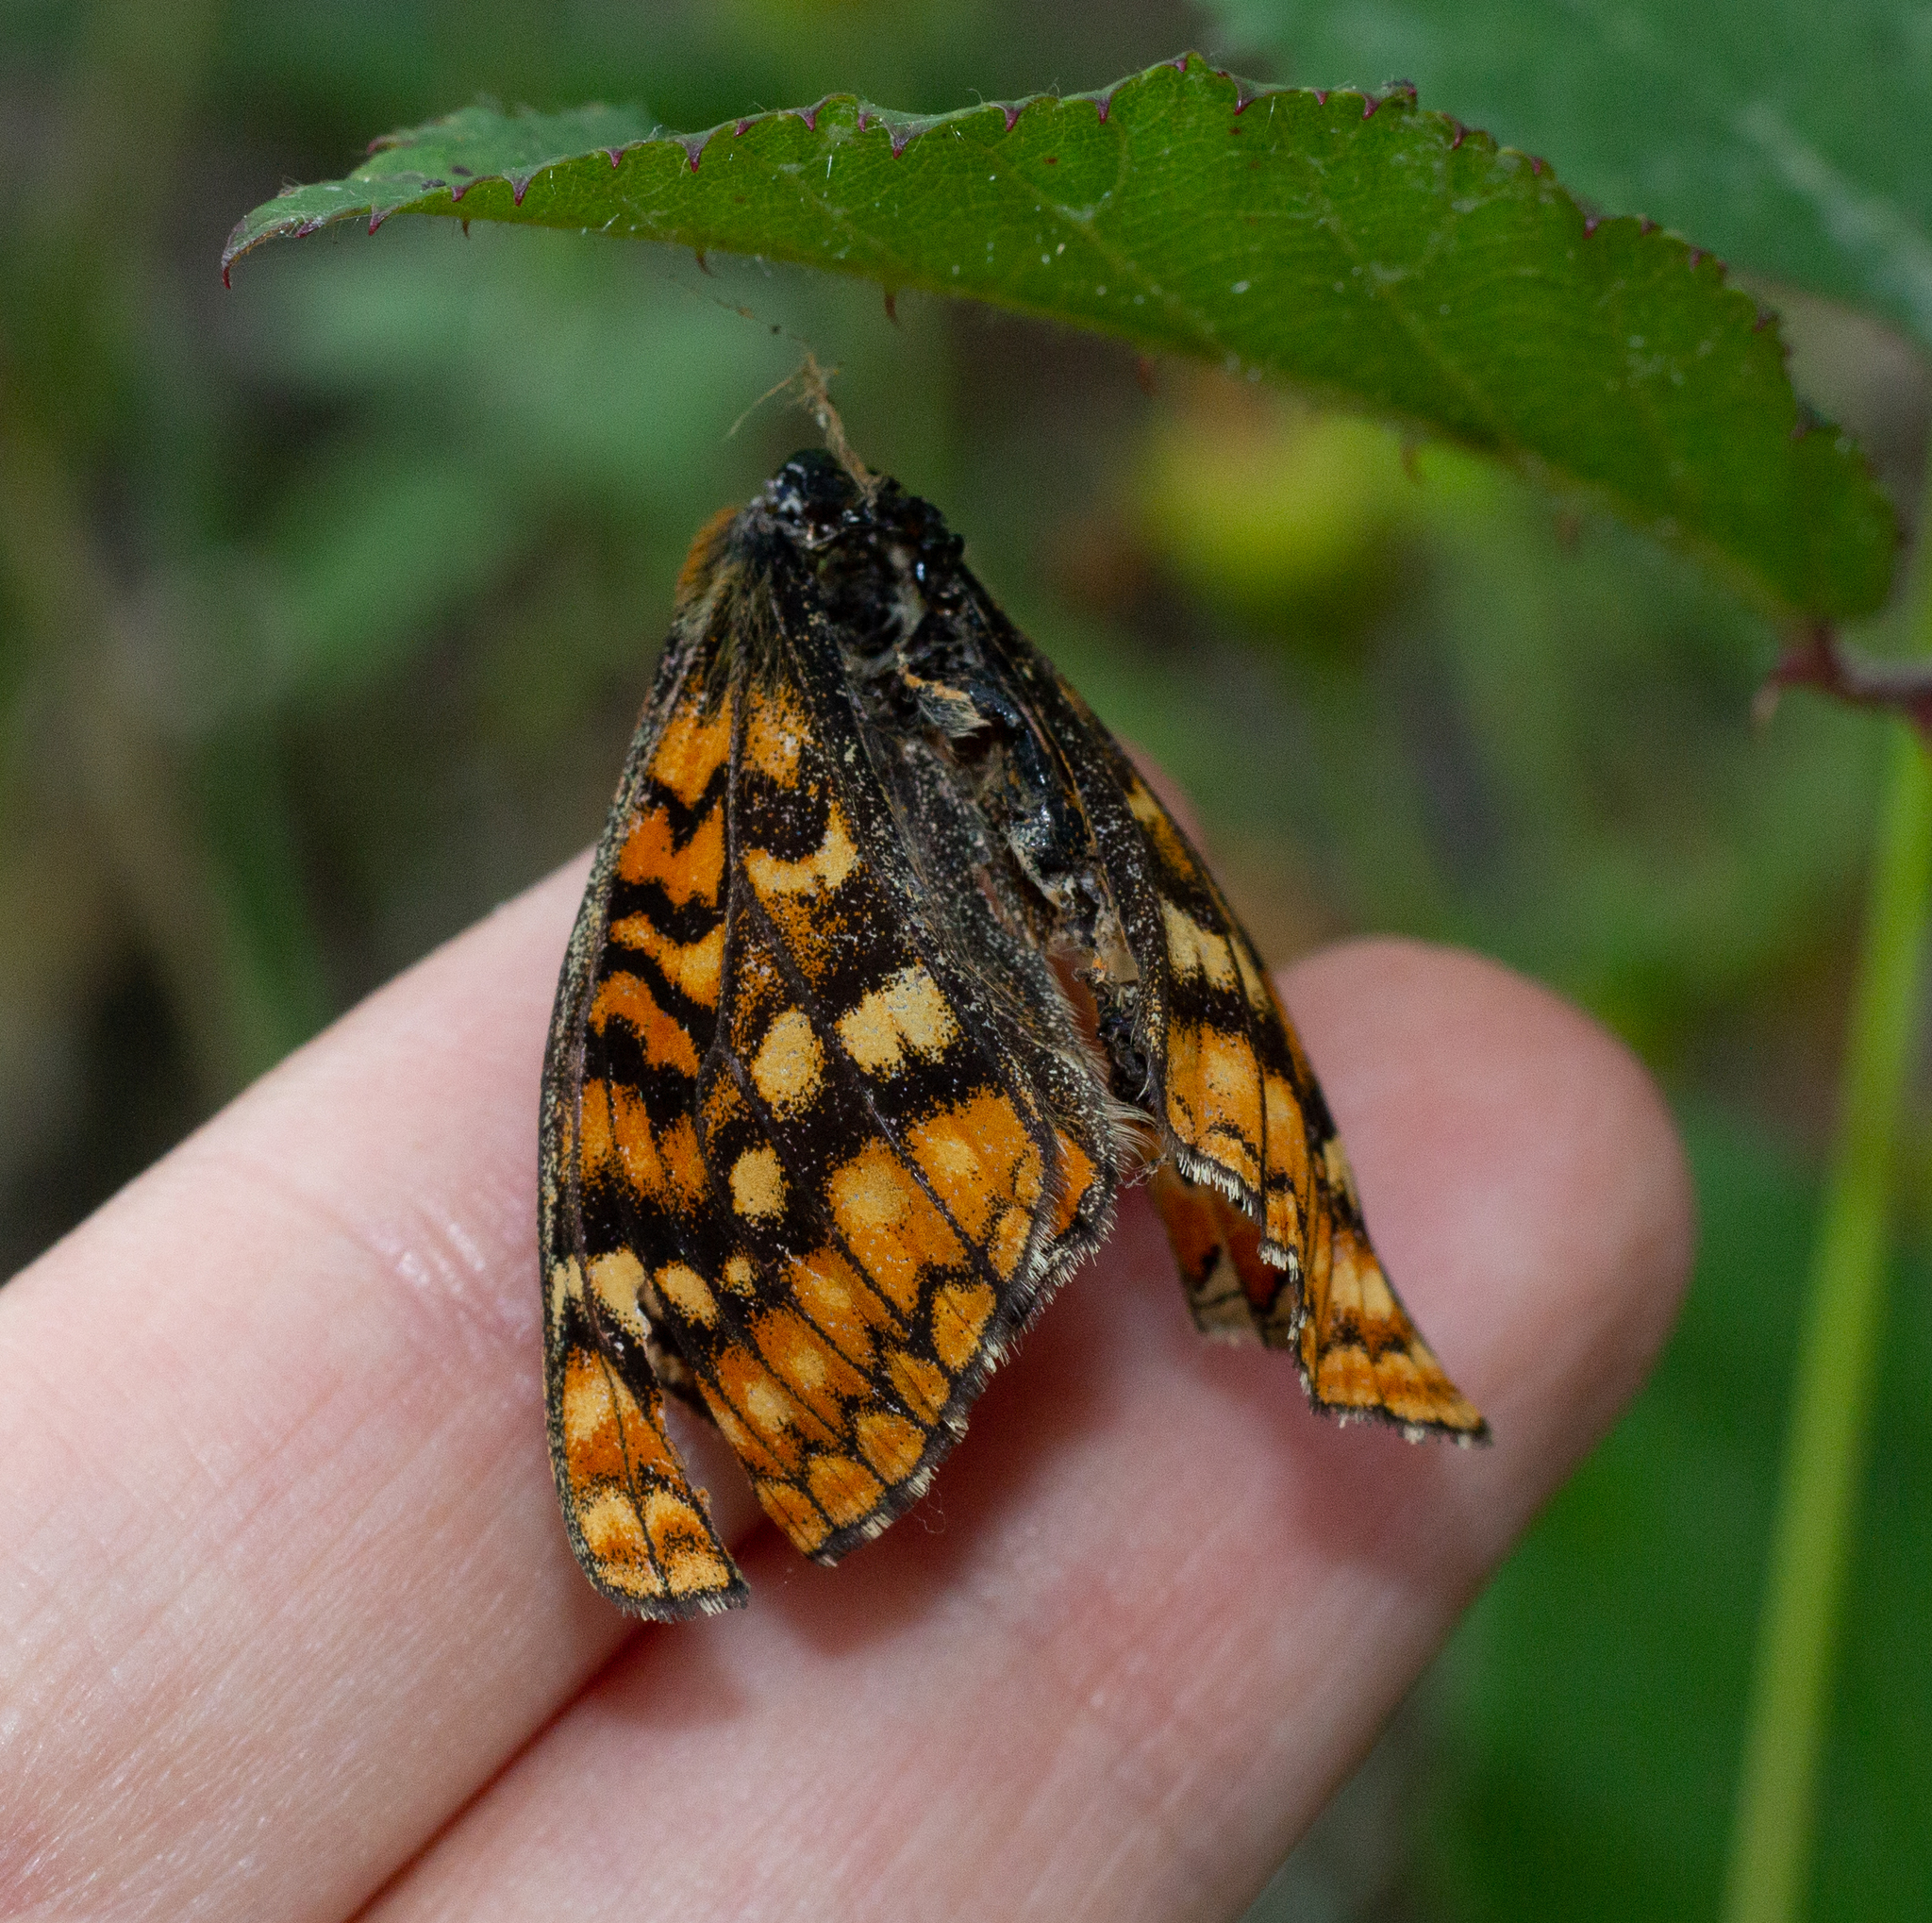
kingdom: Animalia
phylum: Arthropoda
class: Insecta
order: Lepidoptera
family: Nymphalidae
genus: Euphydryas
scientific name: Euphydryas aurinia
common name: Marsh fritillary
